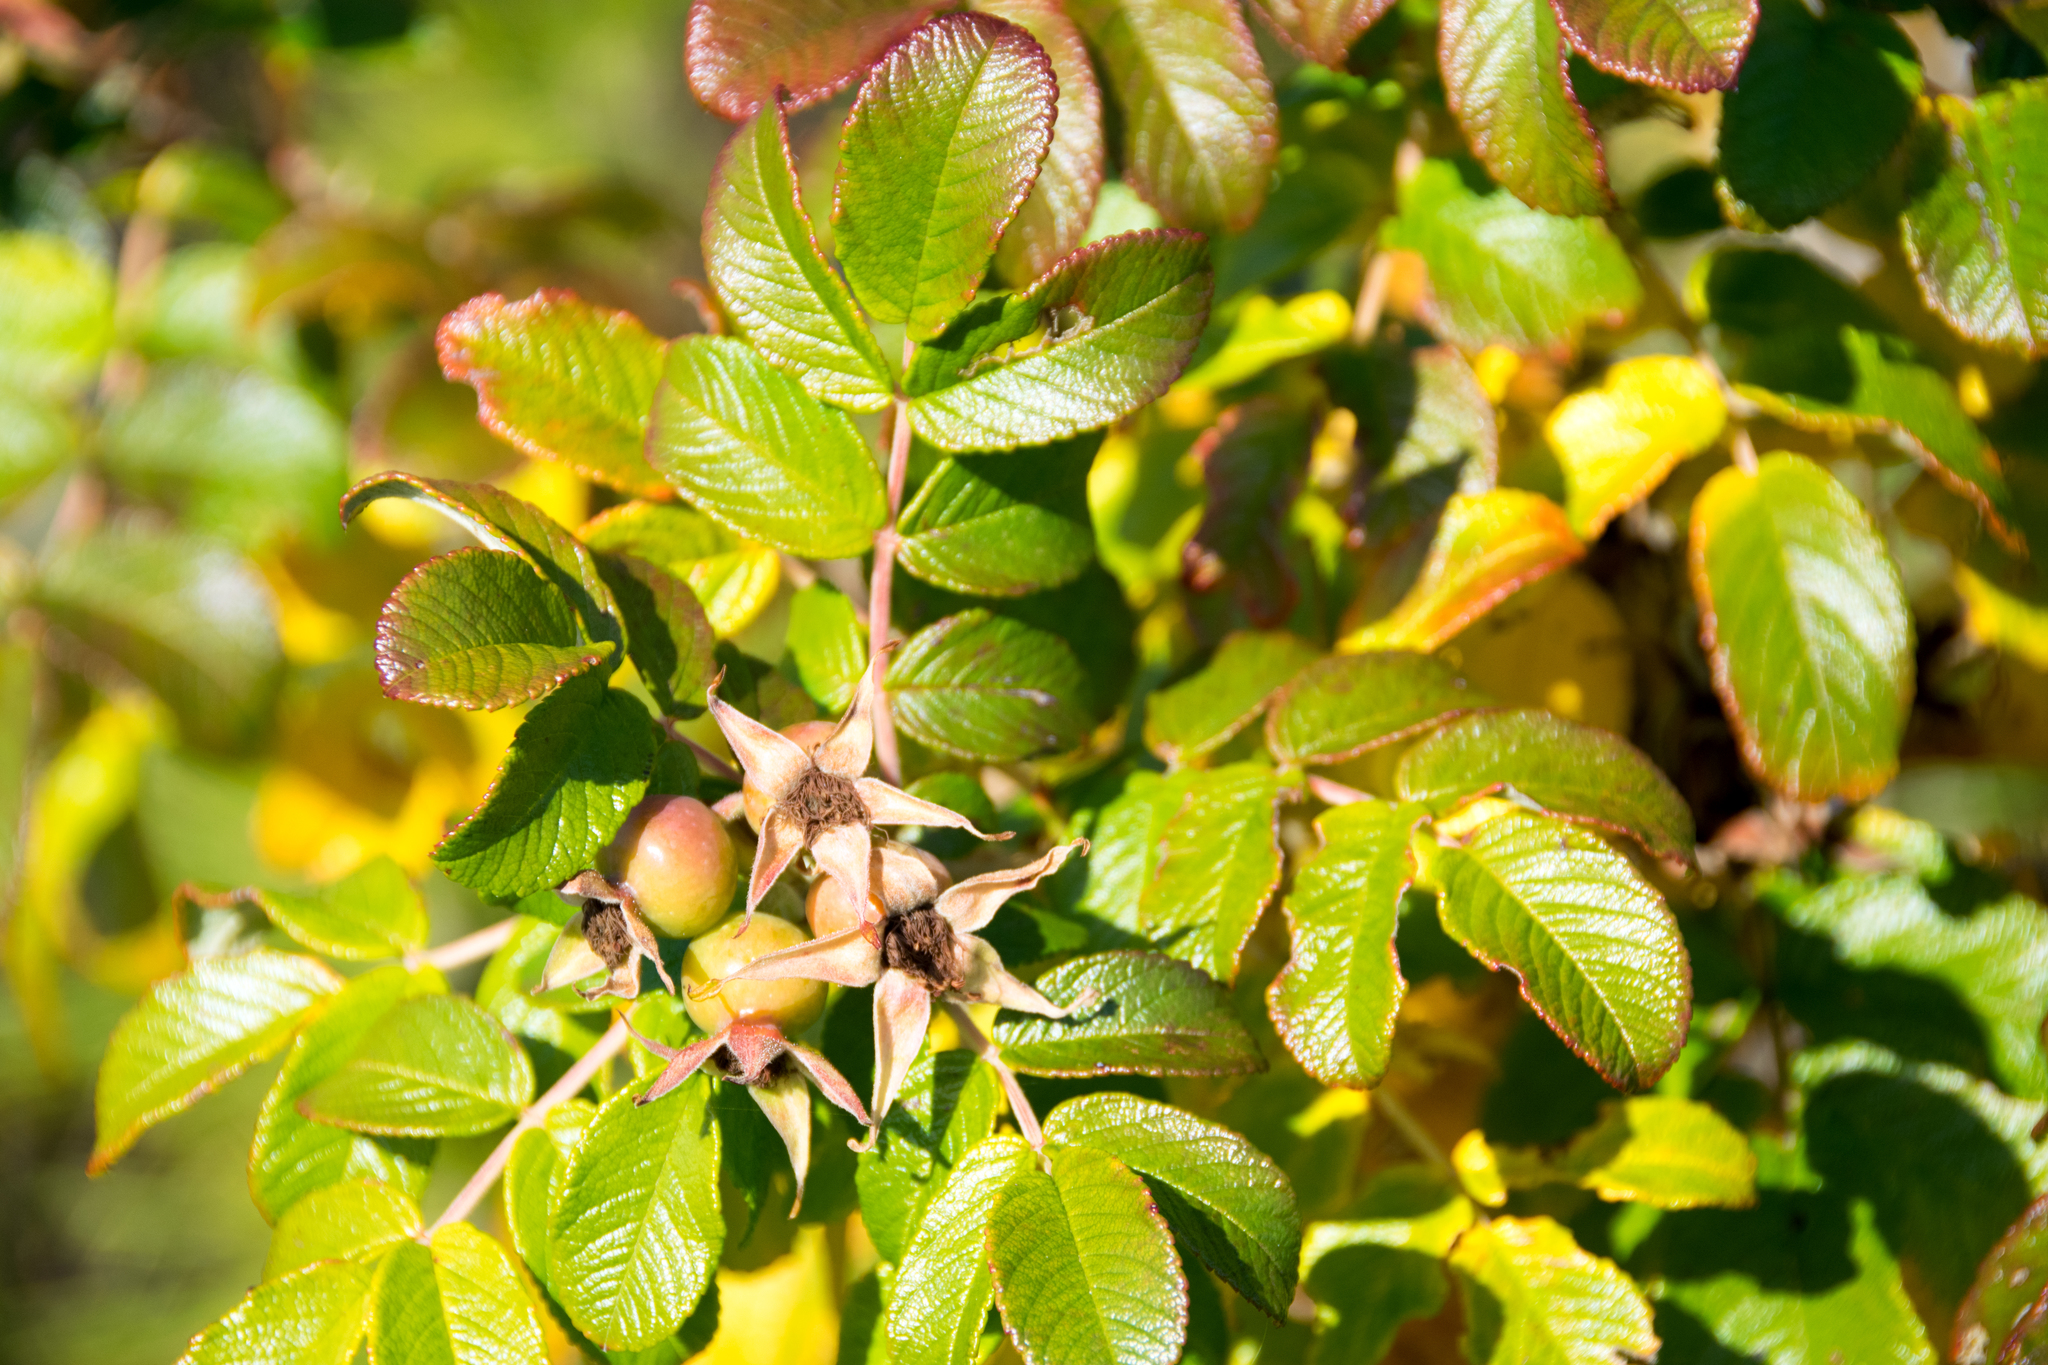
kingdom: Plantae
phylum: Tracheophyta
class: Magnoliopsida
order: Rosales
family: Rosaceae
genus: Rosa
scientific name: Rosa rugosa
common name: Japanese rose
